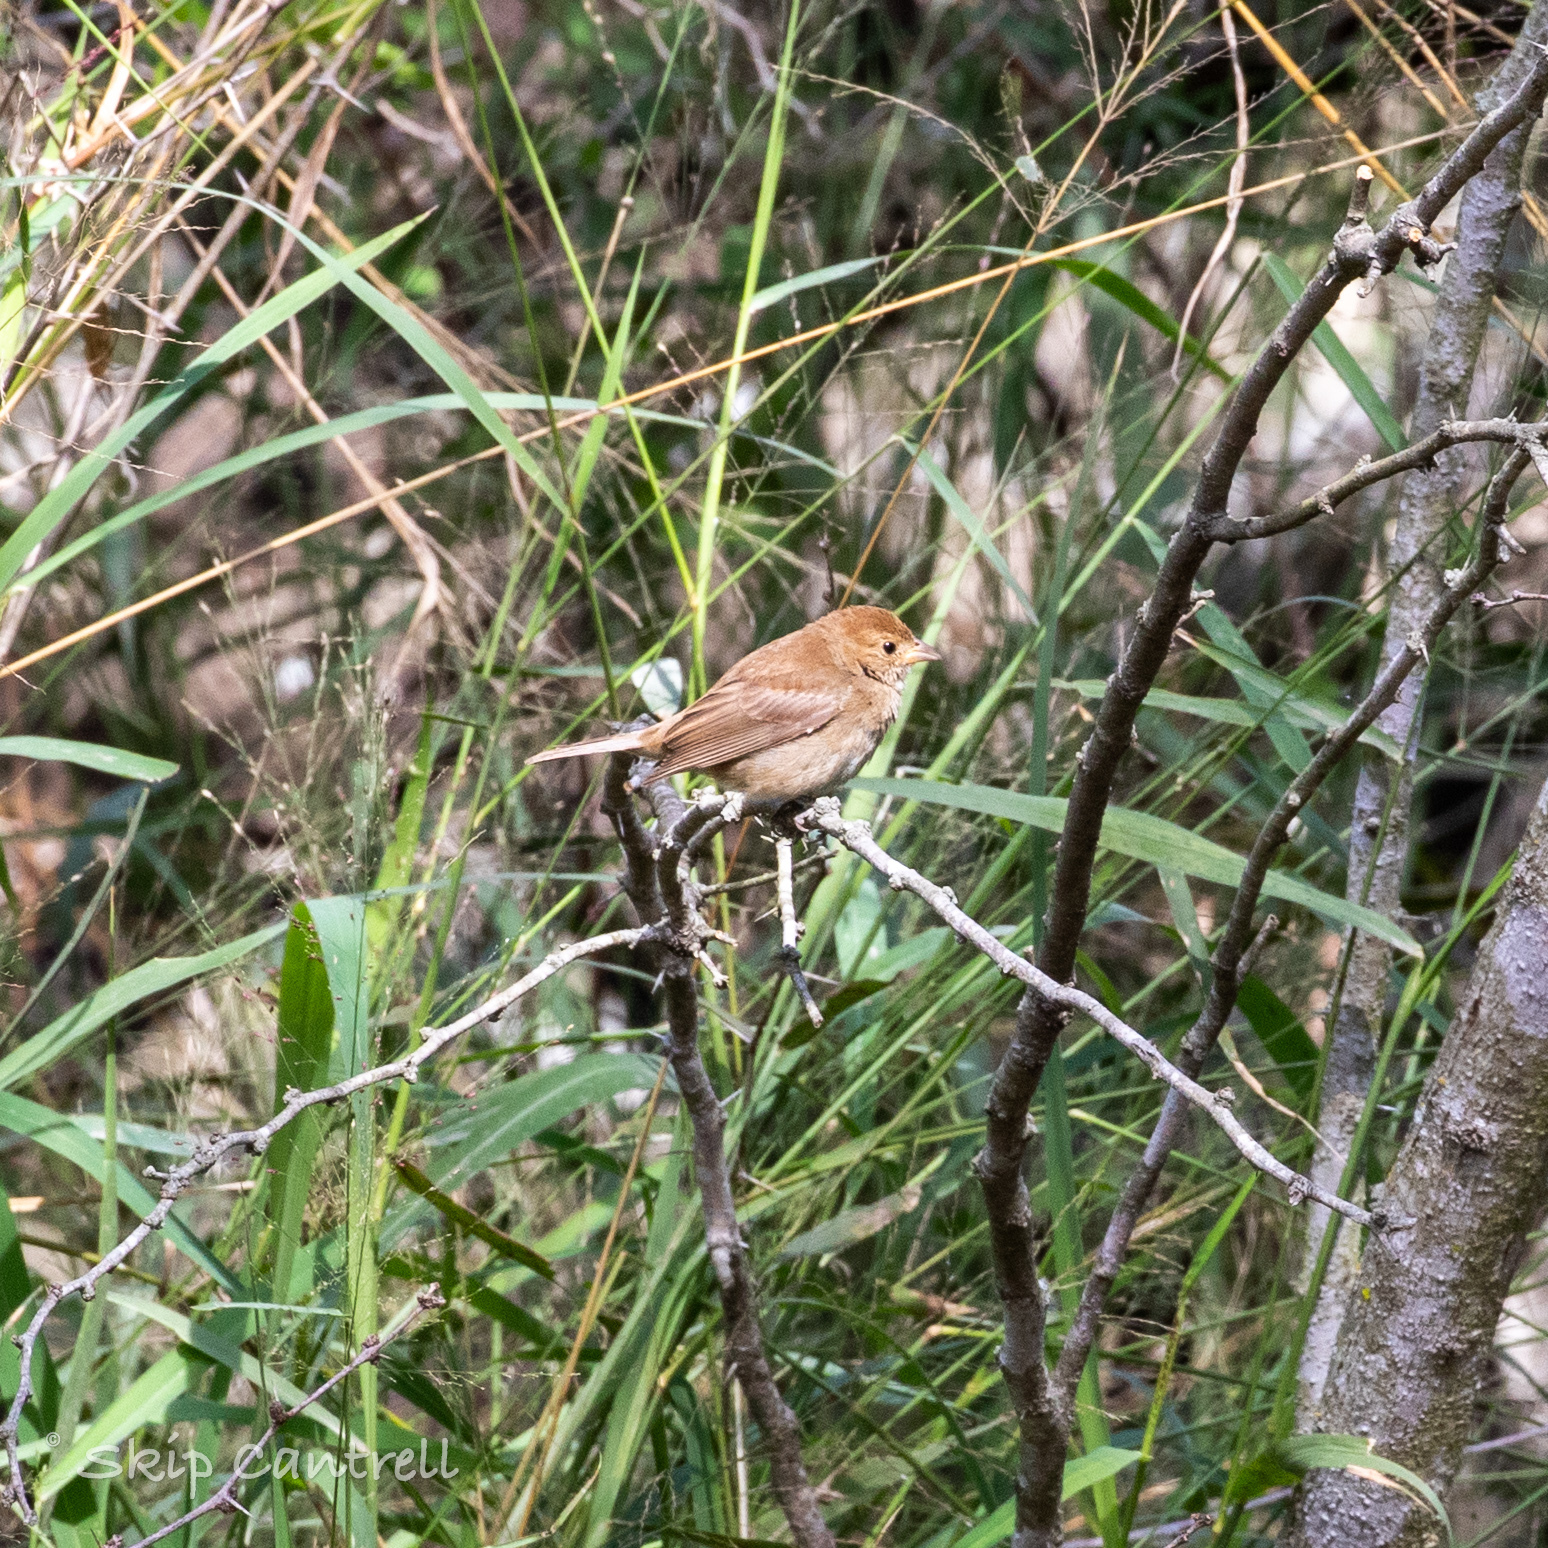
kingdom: Animalia
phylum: Chordata
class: Aves
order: Passeriformes
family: Cardinalidae
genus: Passerina
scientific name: Passerina cyanea
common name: Indigo bunting
